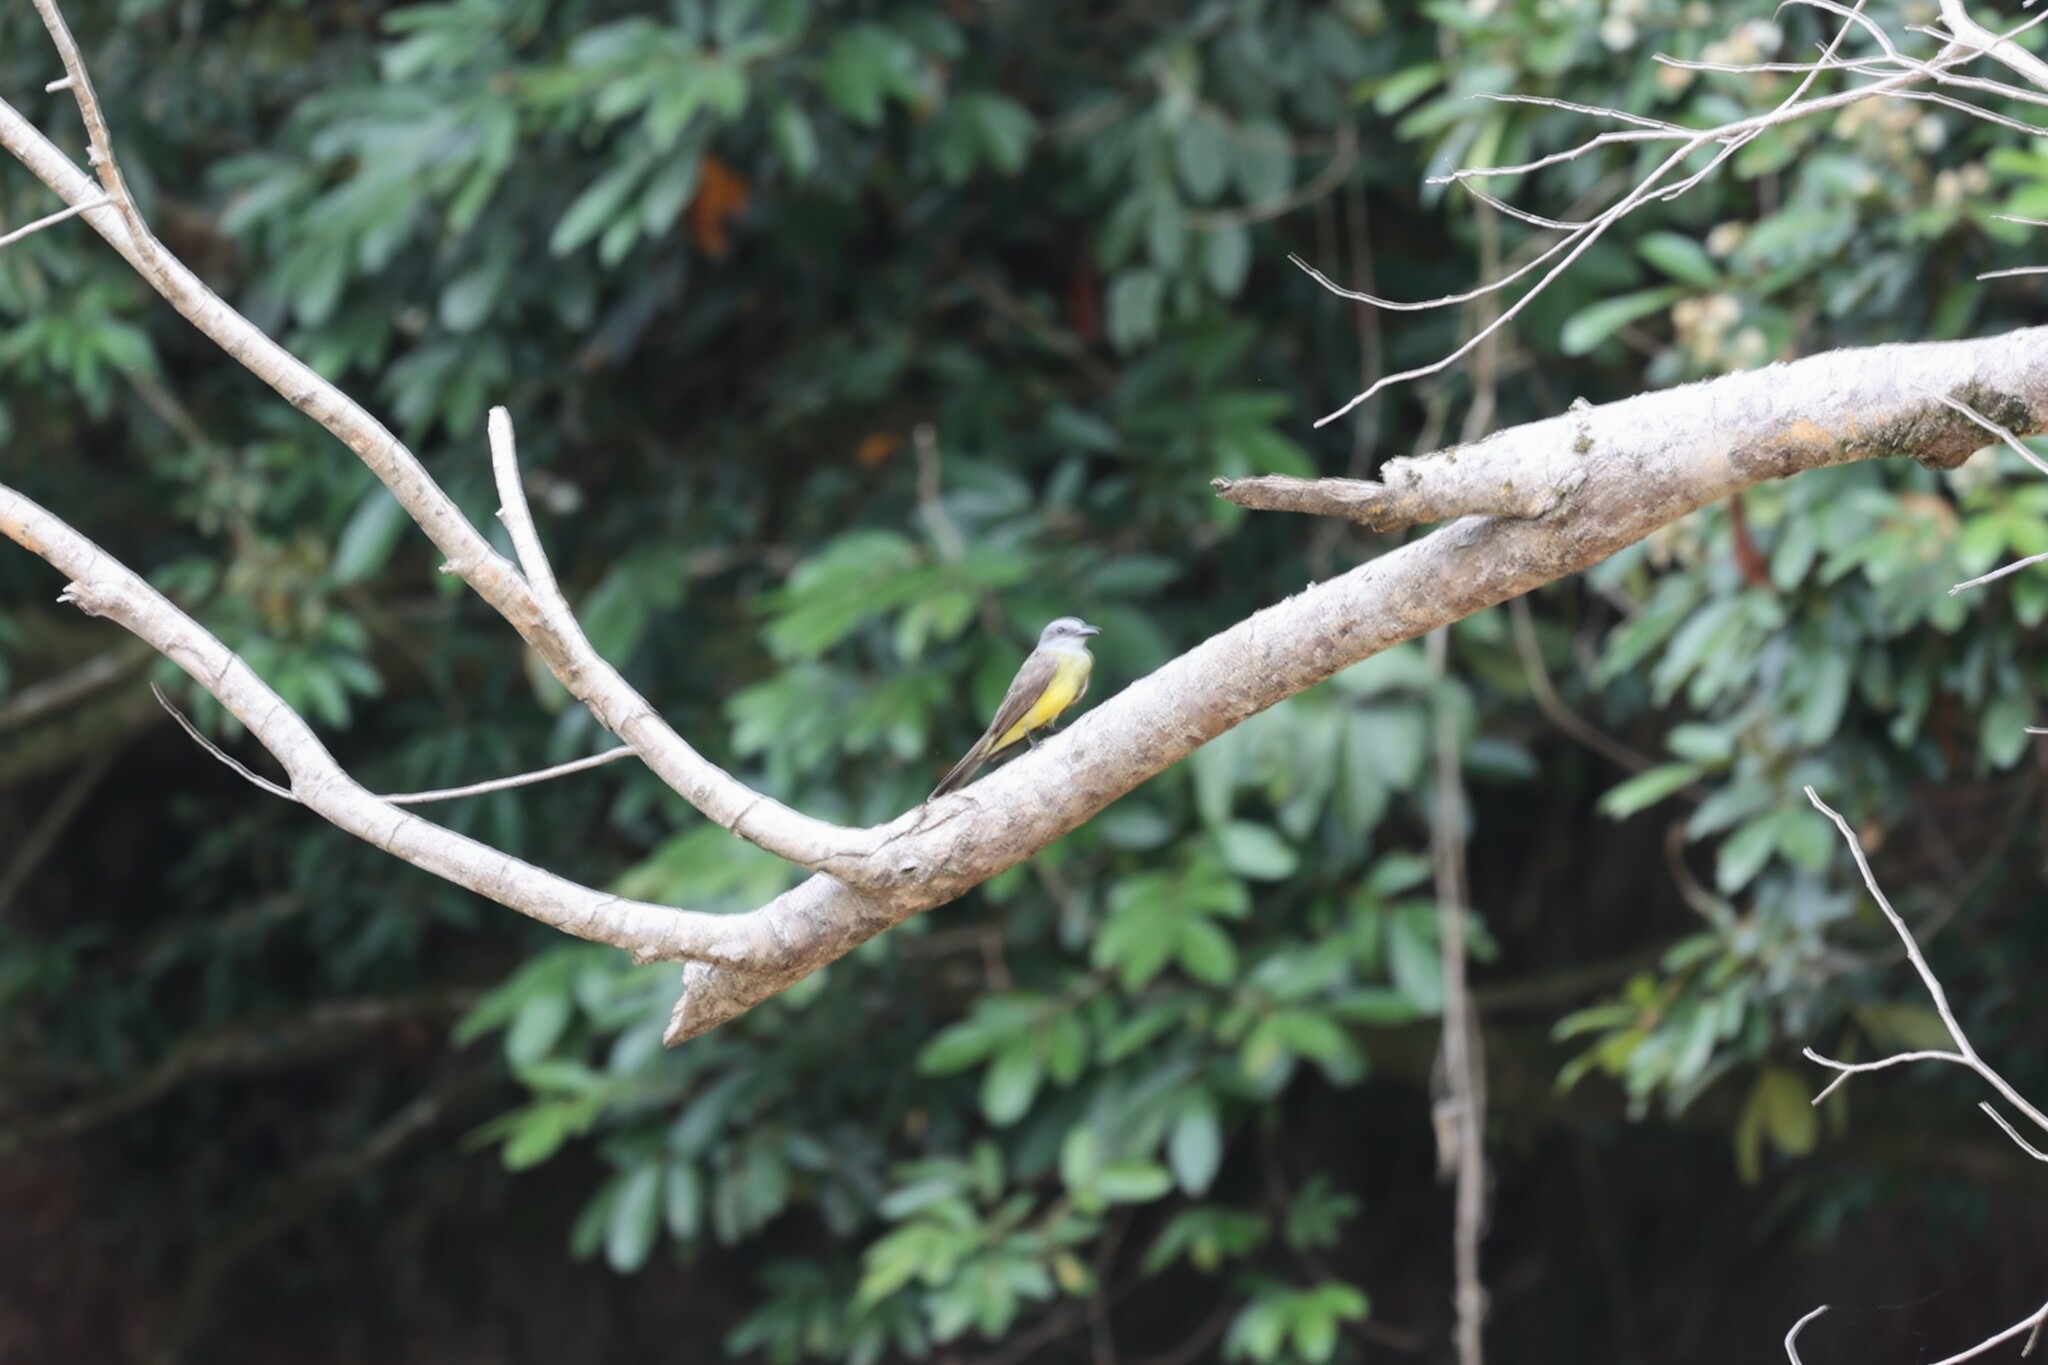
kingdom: Animalia
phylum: Chordata
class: Aves
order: Passeriformes
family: Tyrannidae
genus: Tyrannus
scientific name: Tyrannus melancholicus
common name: Tropical kingbird
